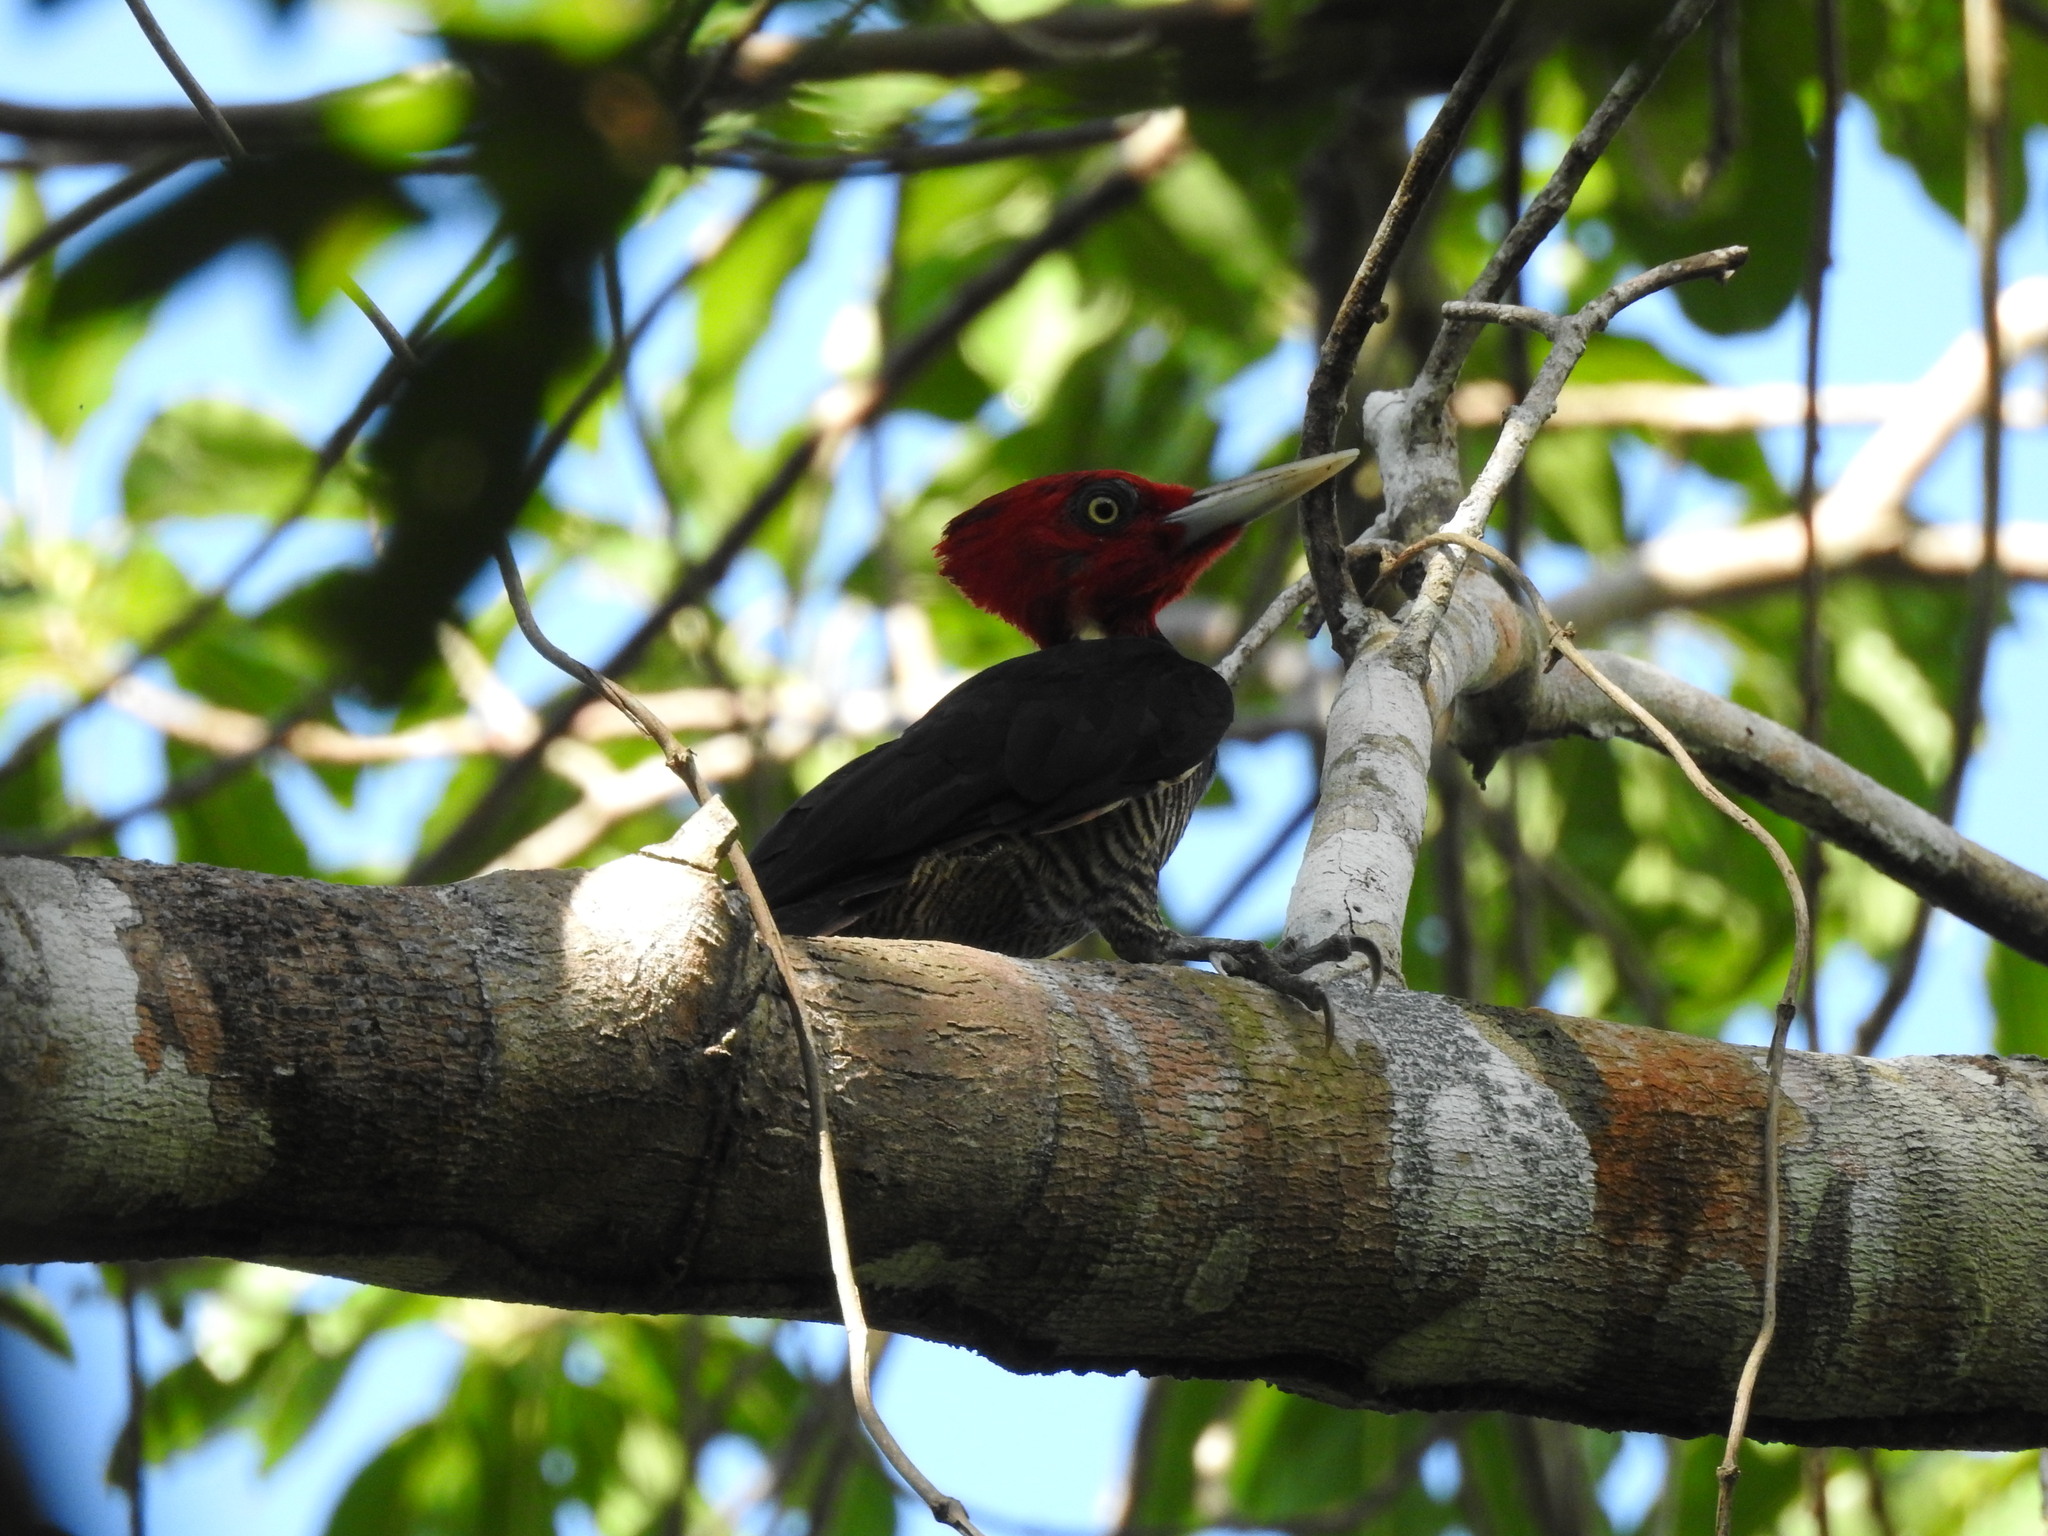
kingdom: Animalia
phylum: Chordata
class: Aves
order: Piciformes
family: Picidae
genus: Campephilus
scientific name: Campephilus guatemalensis
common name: Pale-billed woodpecker
